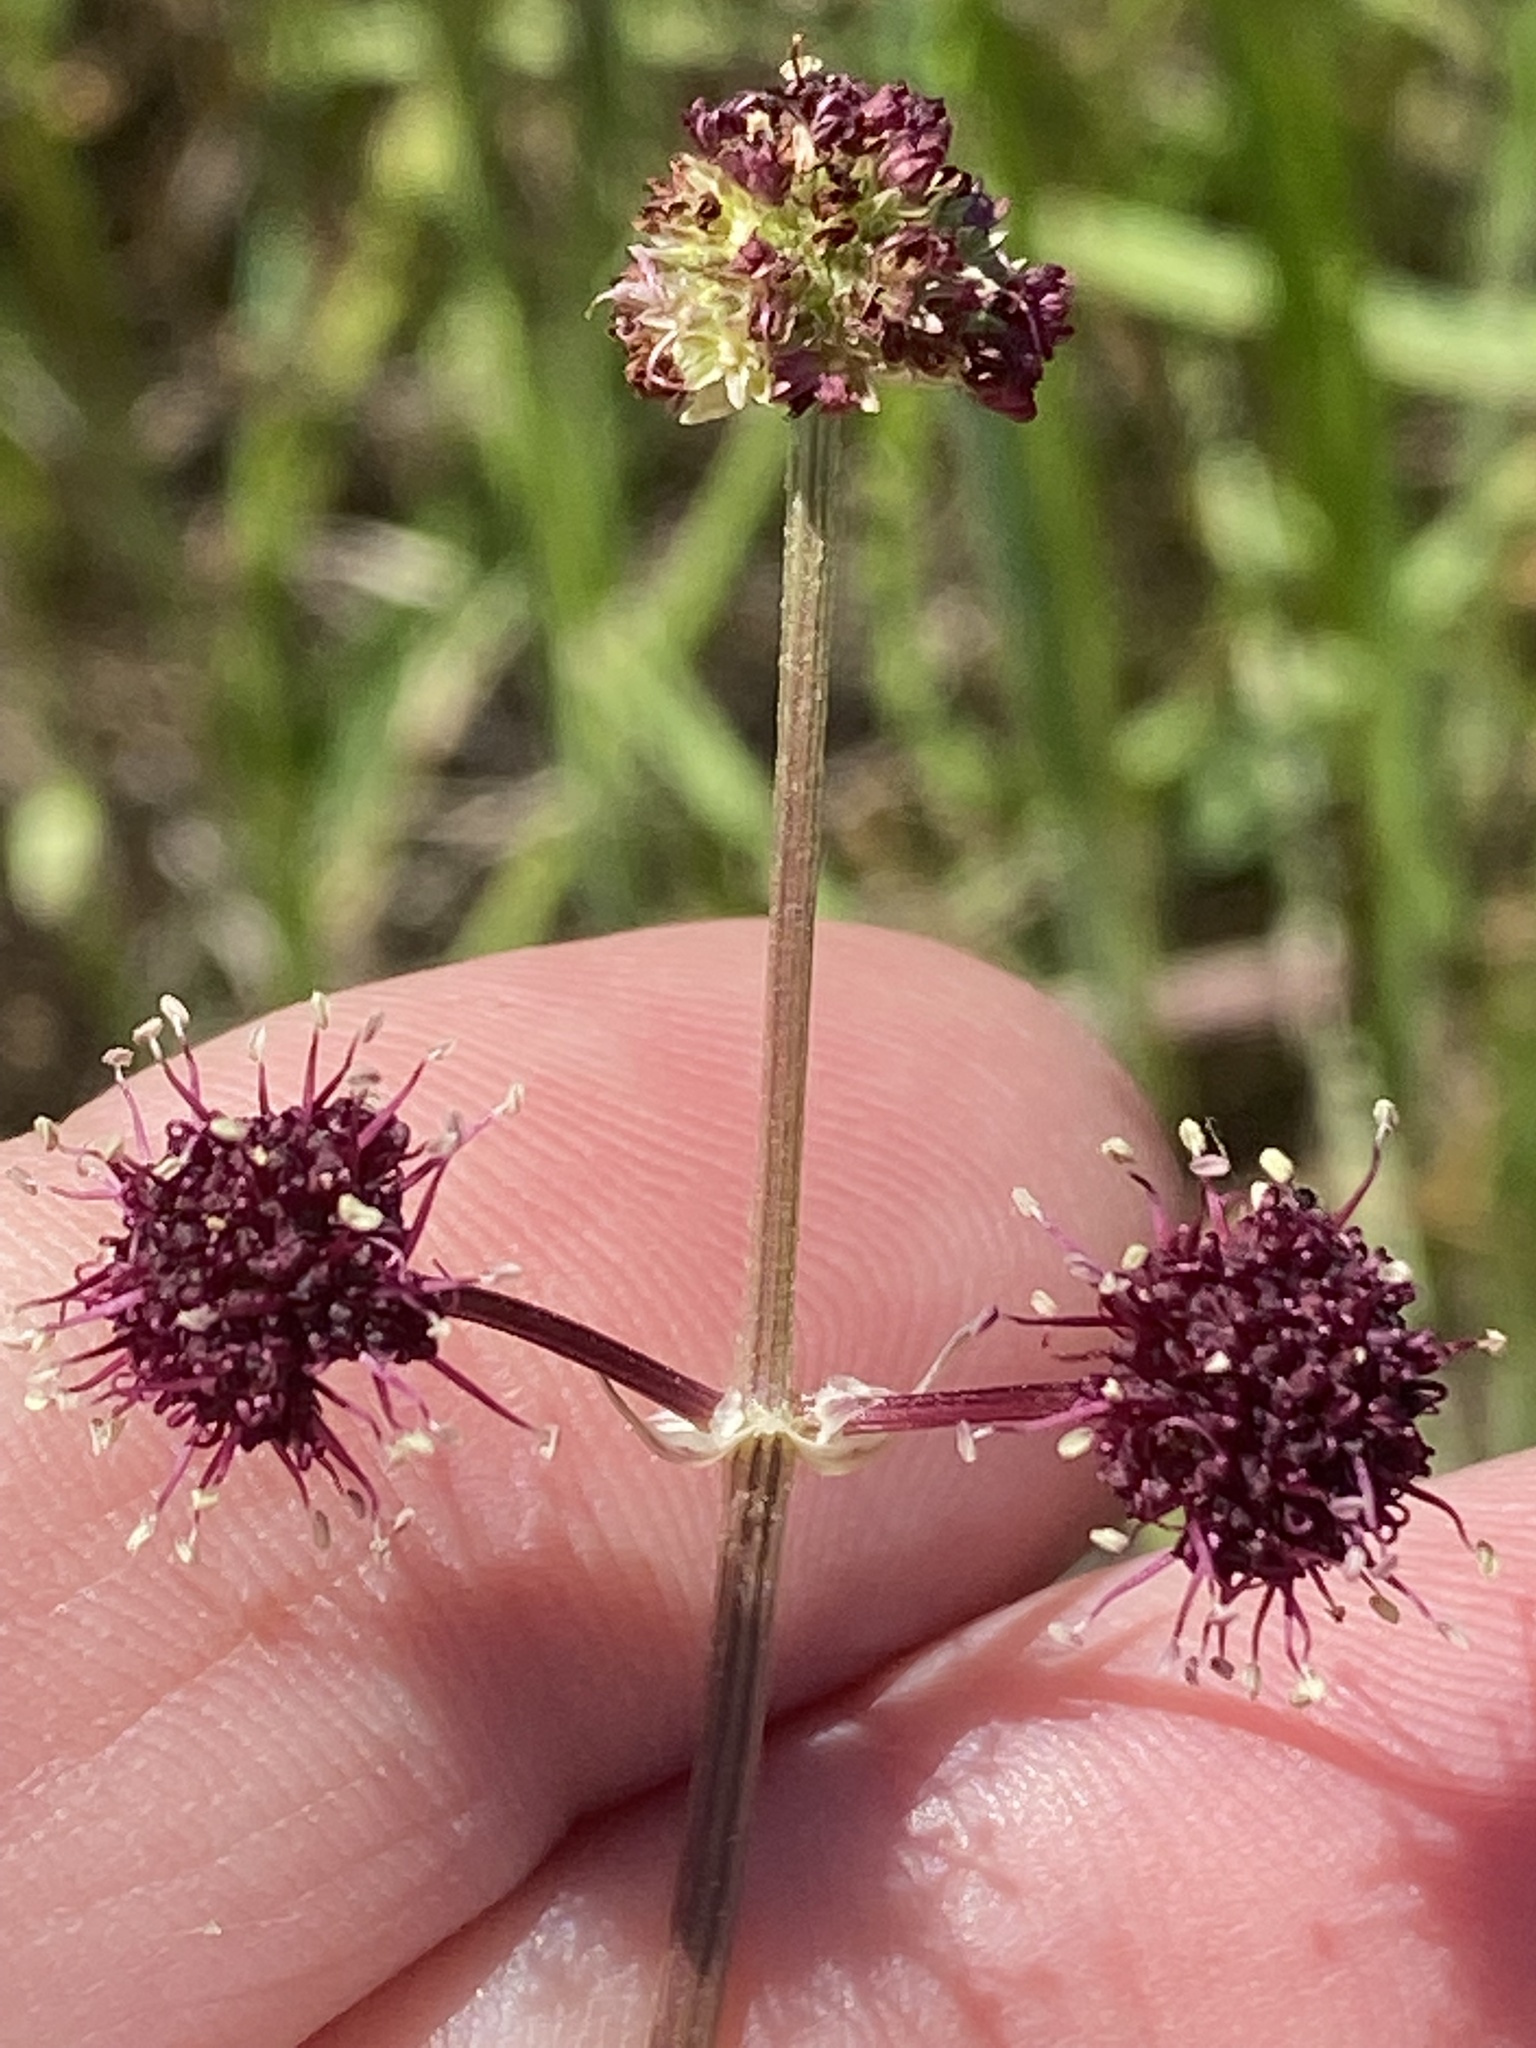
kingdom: Plantae
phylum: Tracheophyta
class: Magnoliopsida
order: Apiales
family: Apiaceae
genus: Sanicula
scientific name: Sanicula bipinnatifida
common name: Shoe-buttons
